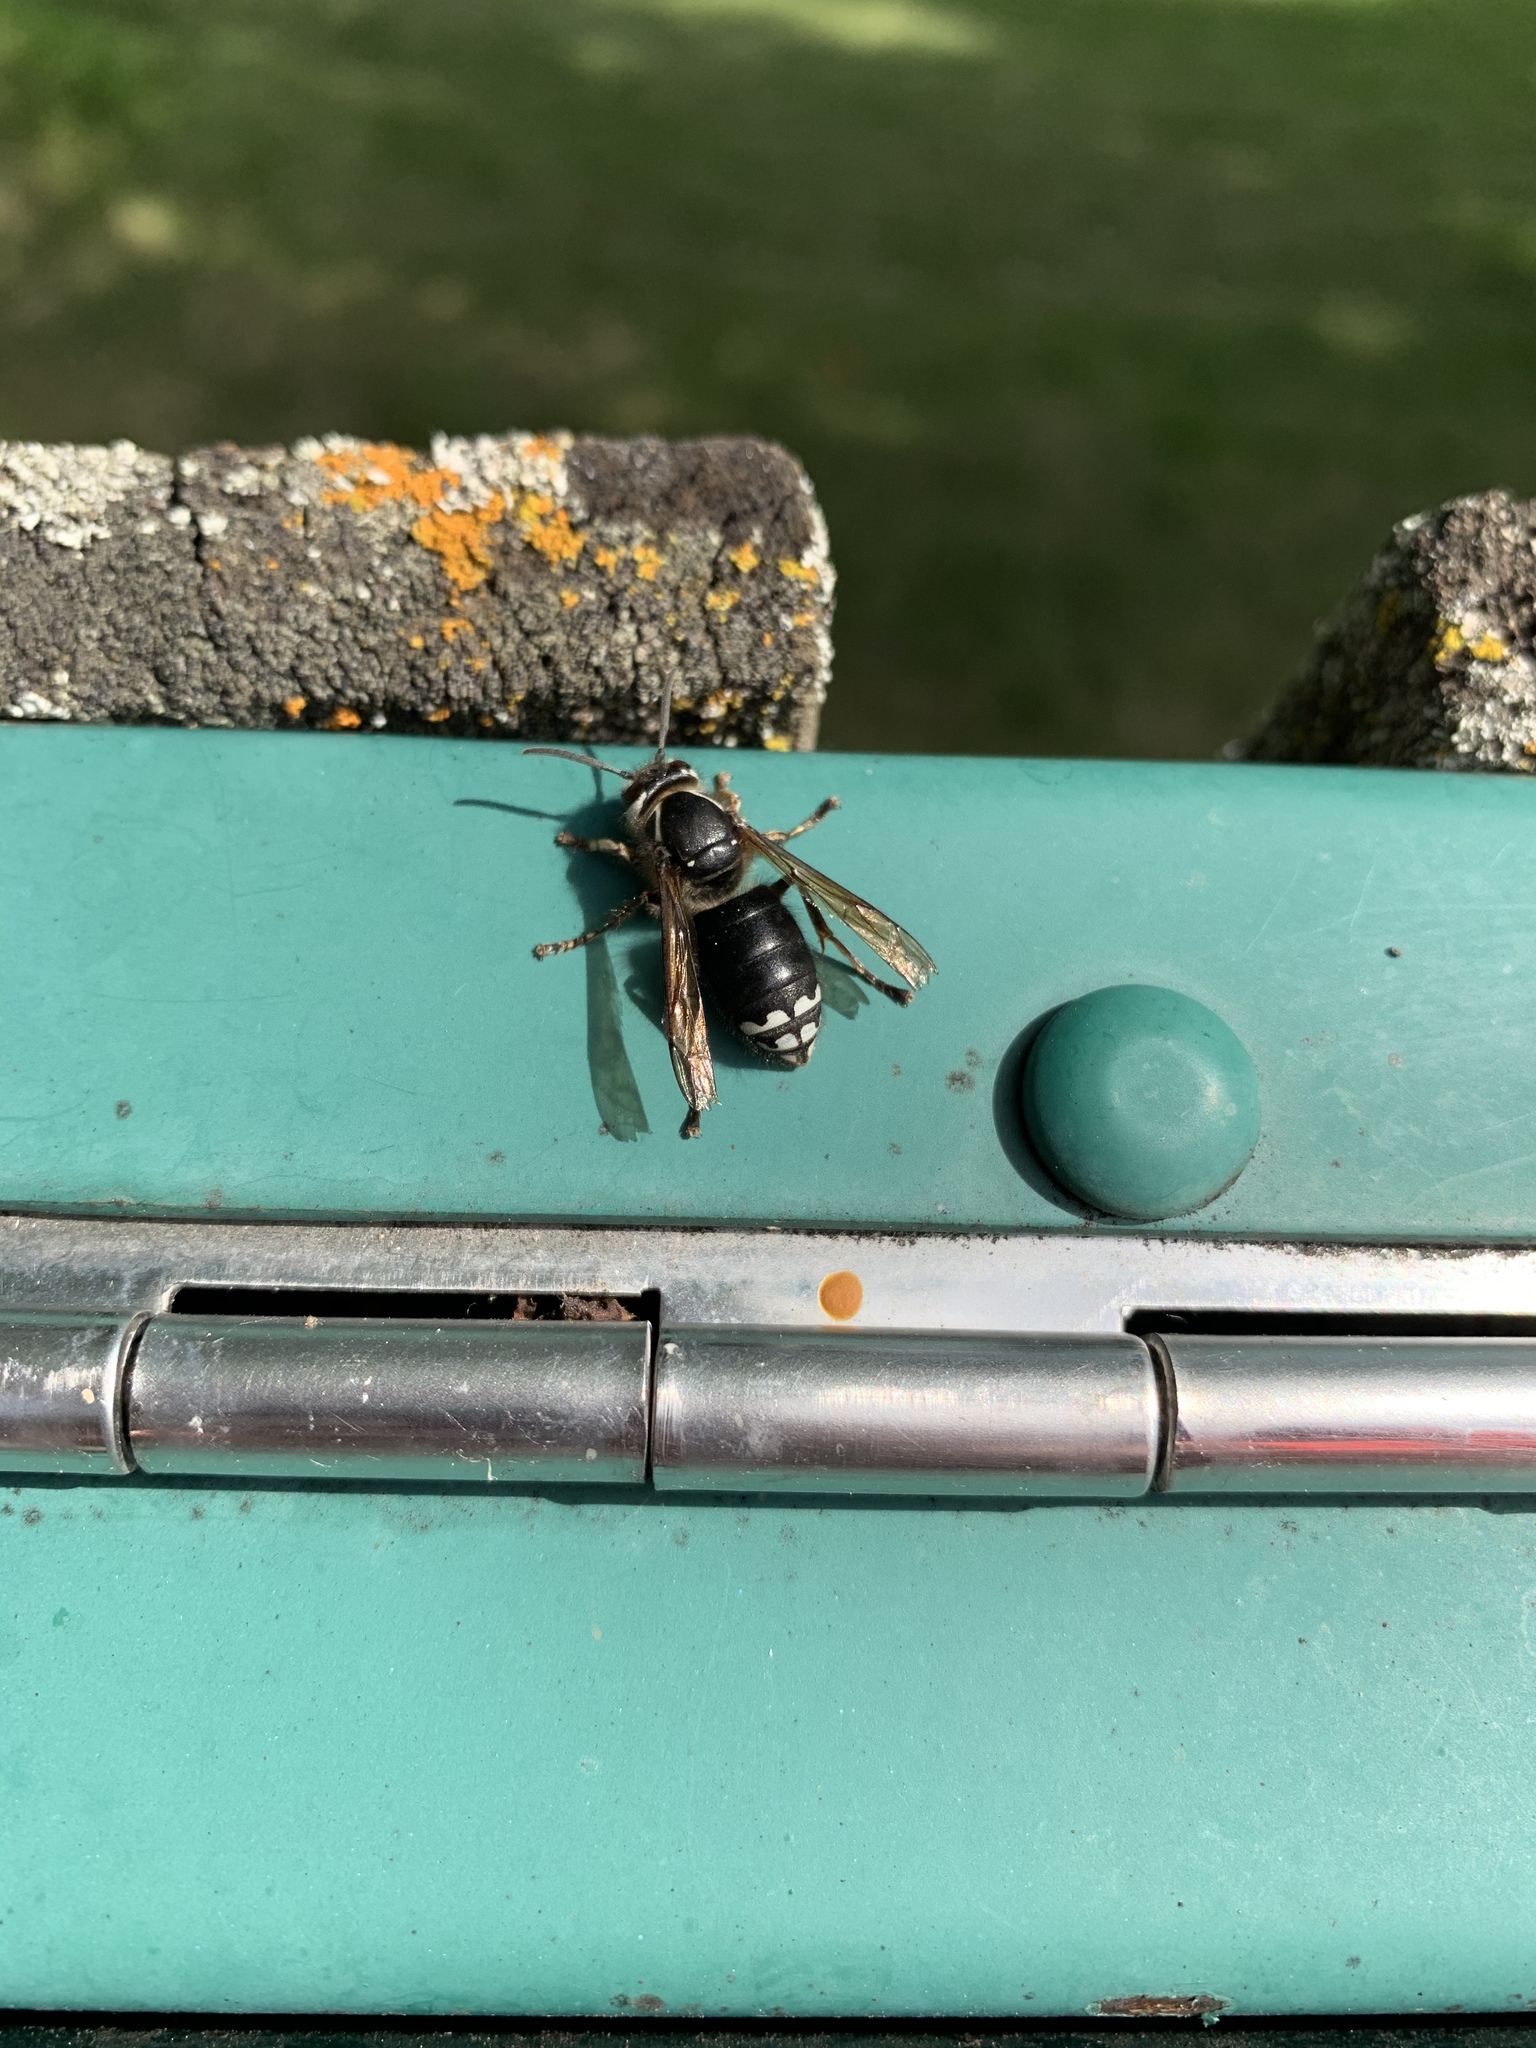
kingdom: Animalia
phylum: Arthropoda
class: Insecta
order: Hymenoptera
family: Vespidae
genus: Dolichovespula
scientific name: Dolichovespula maculata
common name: Bald-faced hornet
